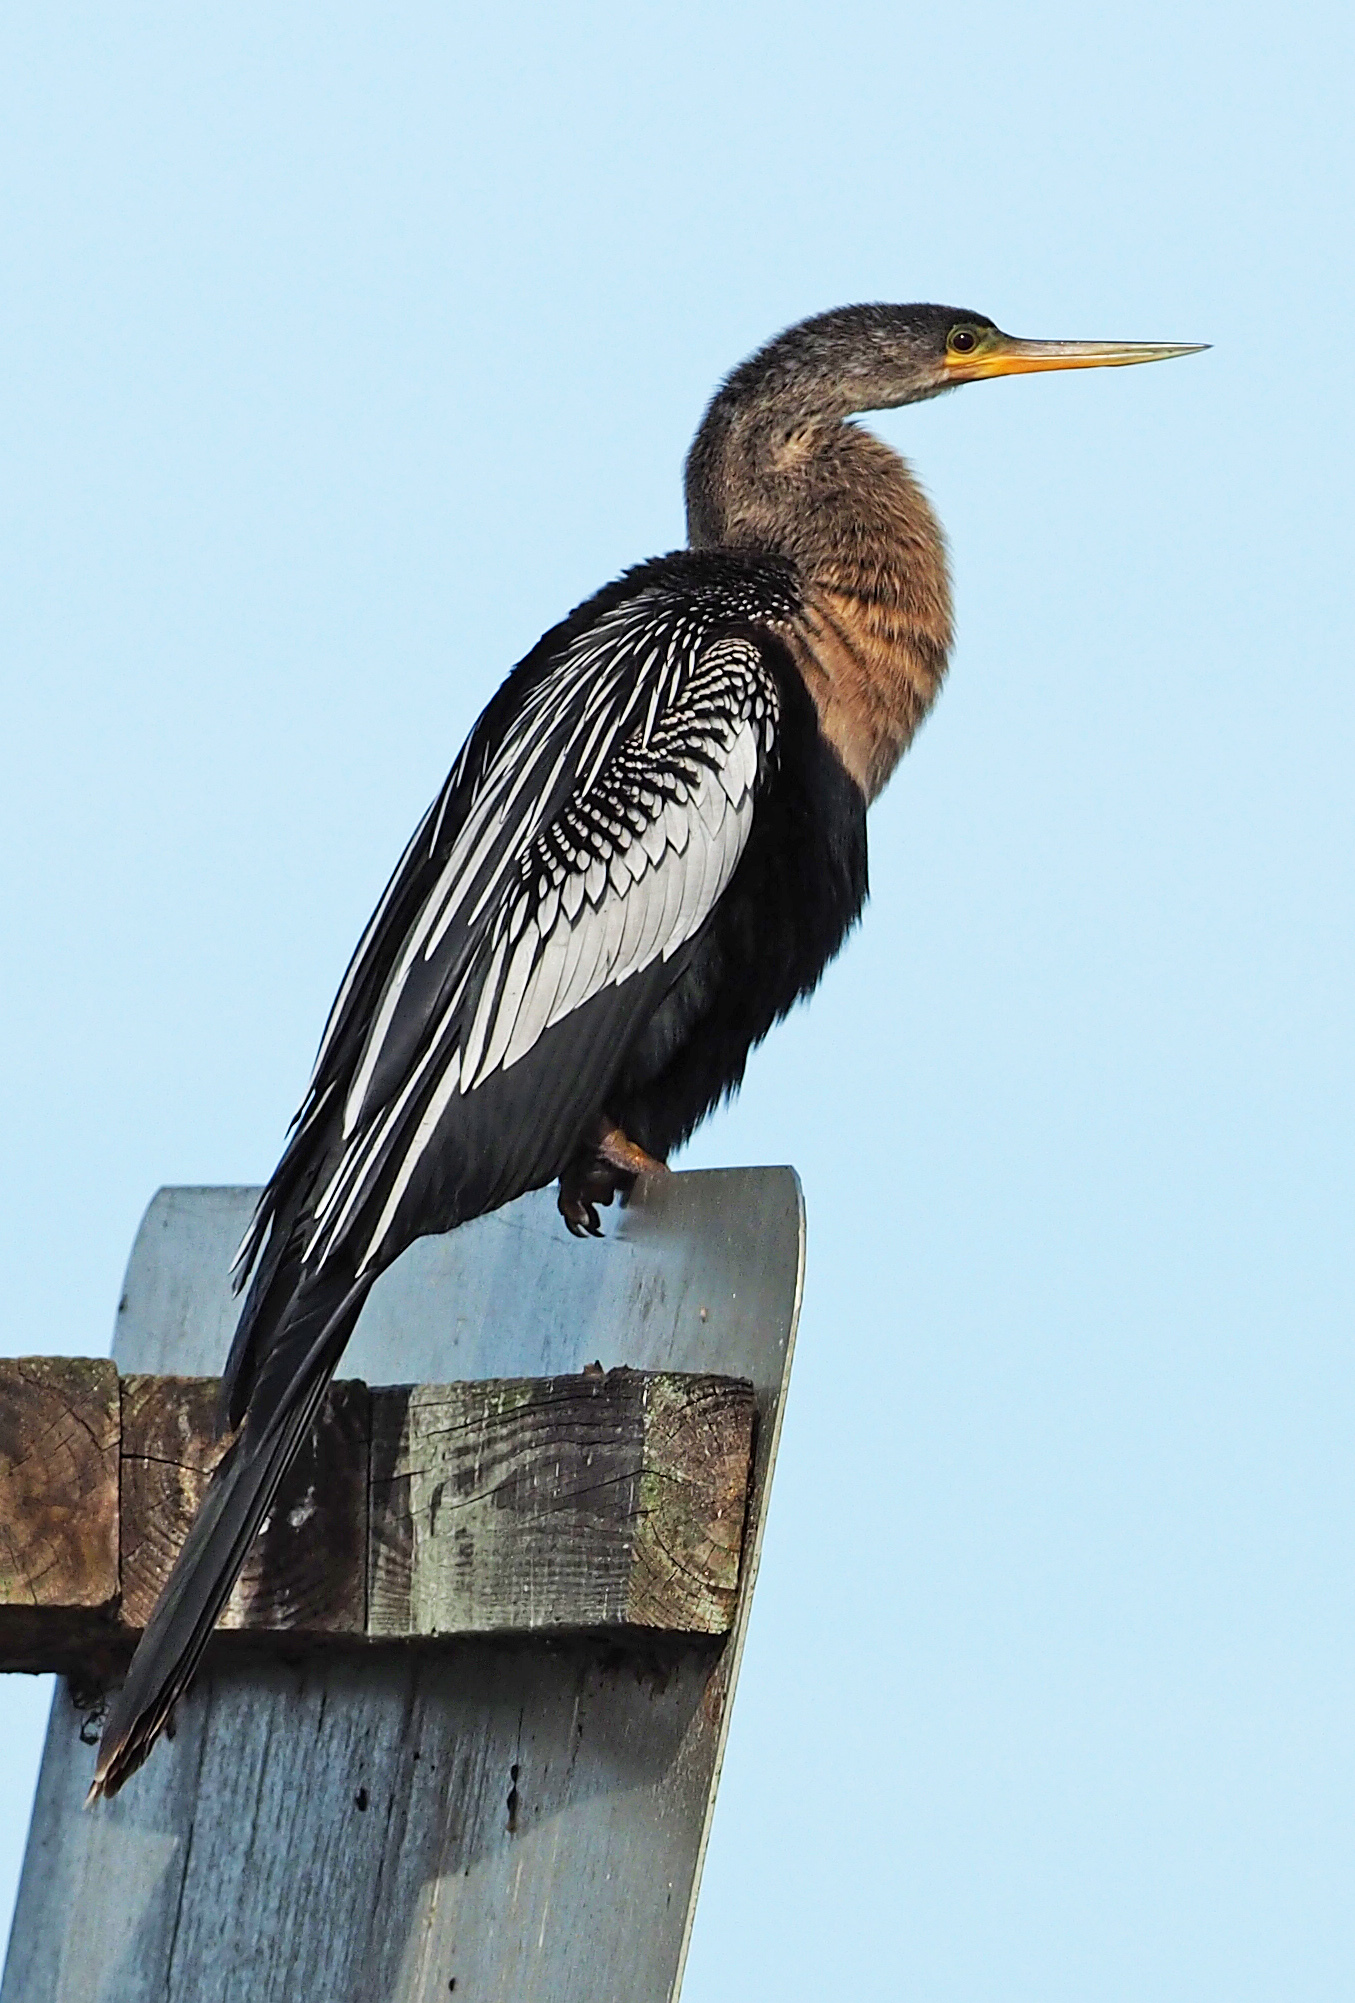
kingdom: Animalia
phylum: Chordata
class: Aves
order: Suliformes
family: Anhingidae
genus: Anhinga
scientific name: Anhinga anhinga
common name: Anhinga
